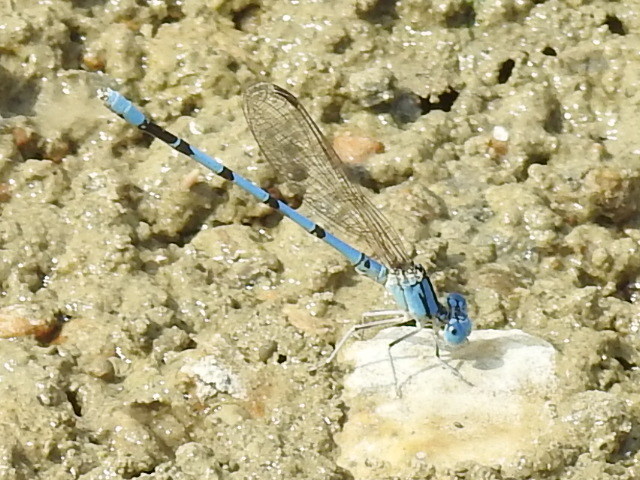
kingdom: Animalia
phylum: Arthropoda
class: Insecta
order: Odonata
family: Coenagrionidae
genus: Argia
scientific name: Argia nahuana
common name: Aztec dancer
